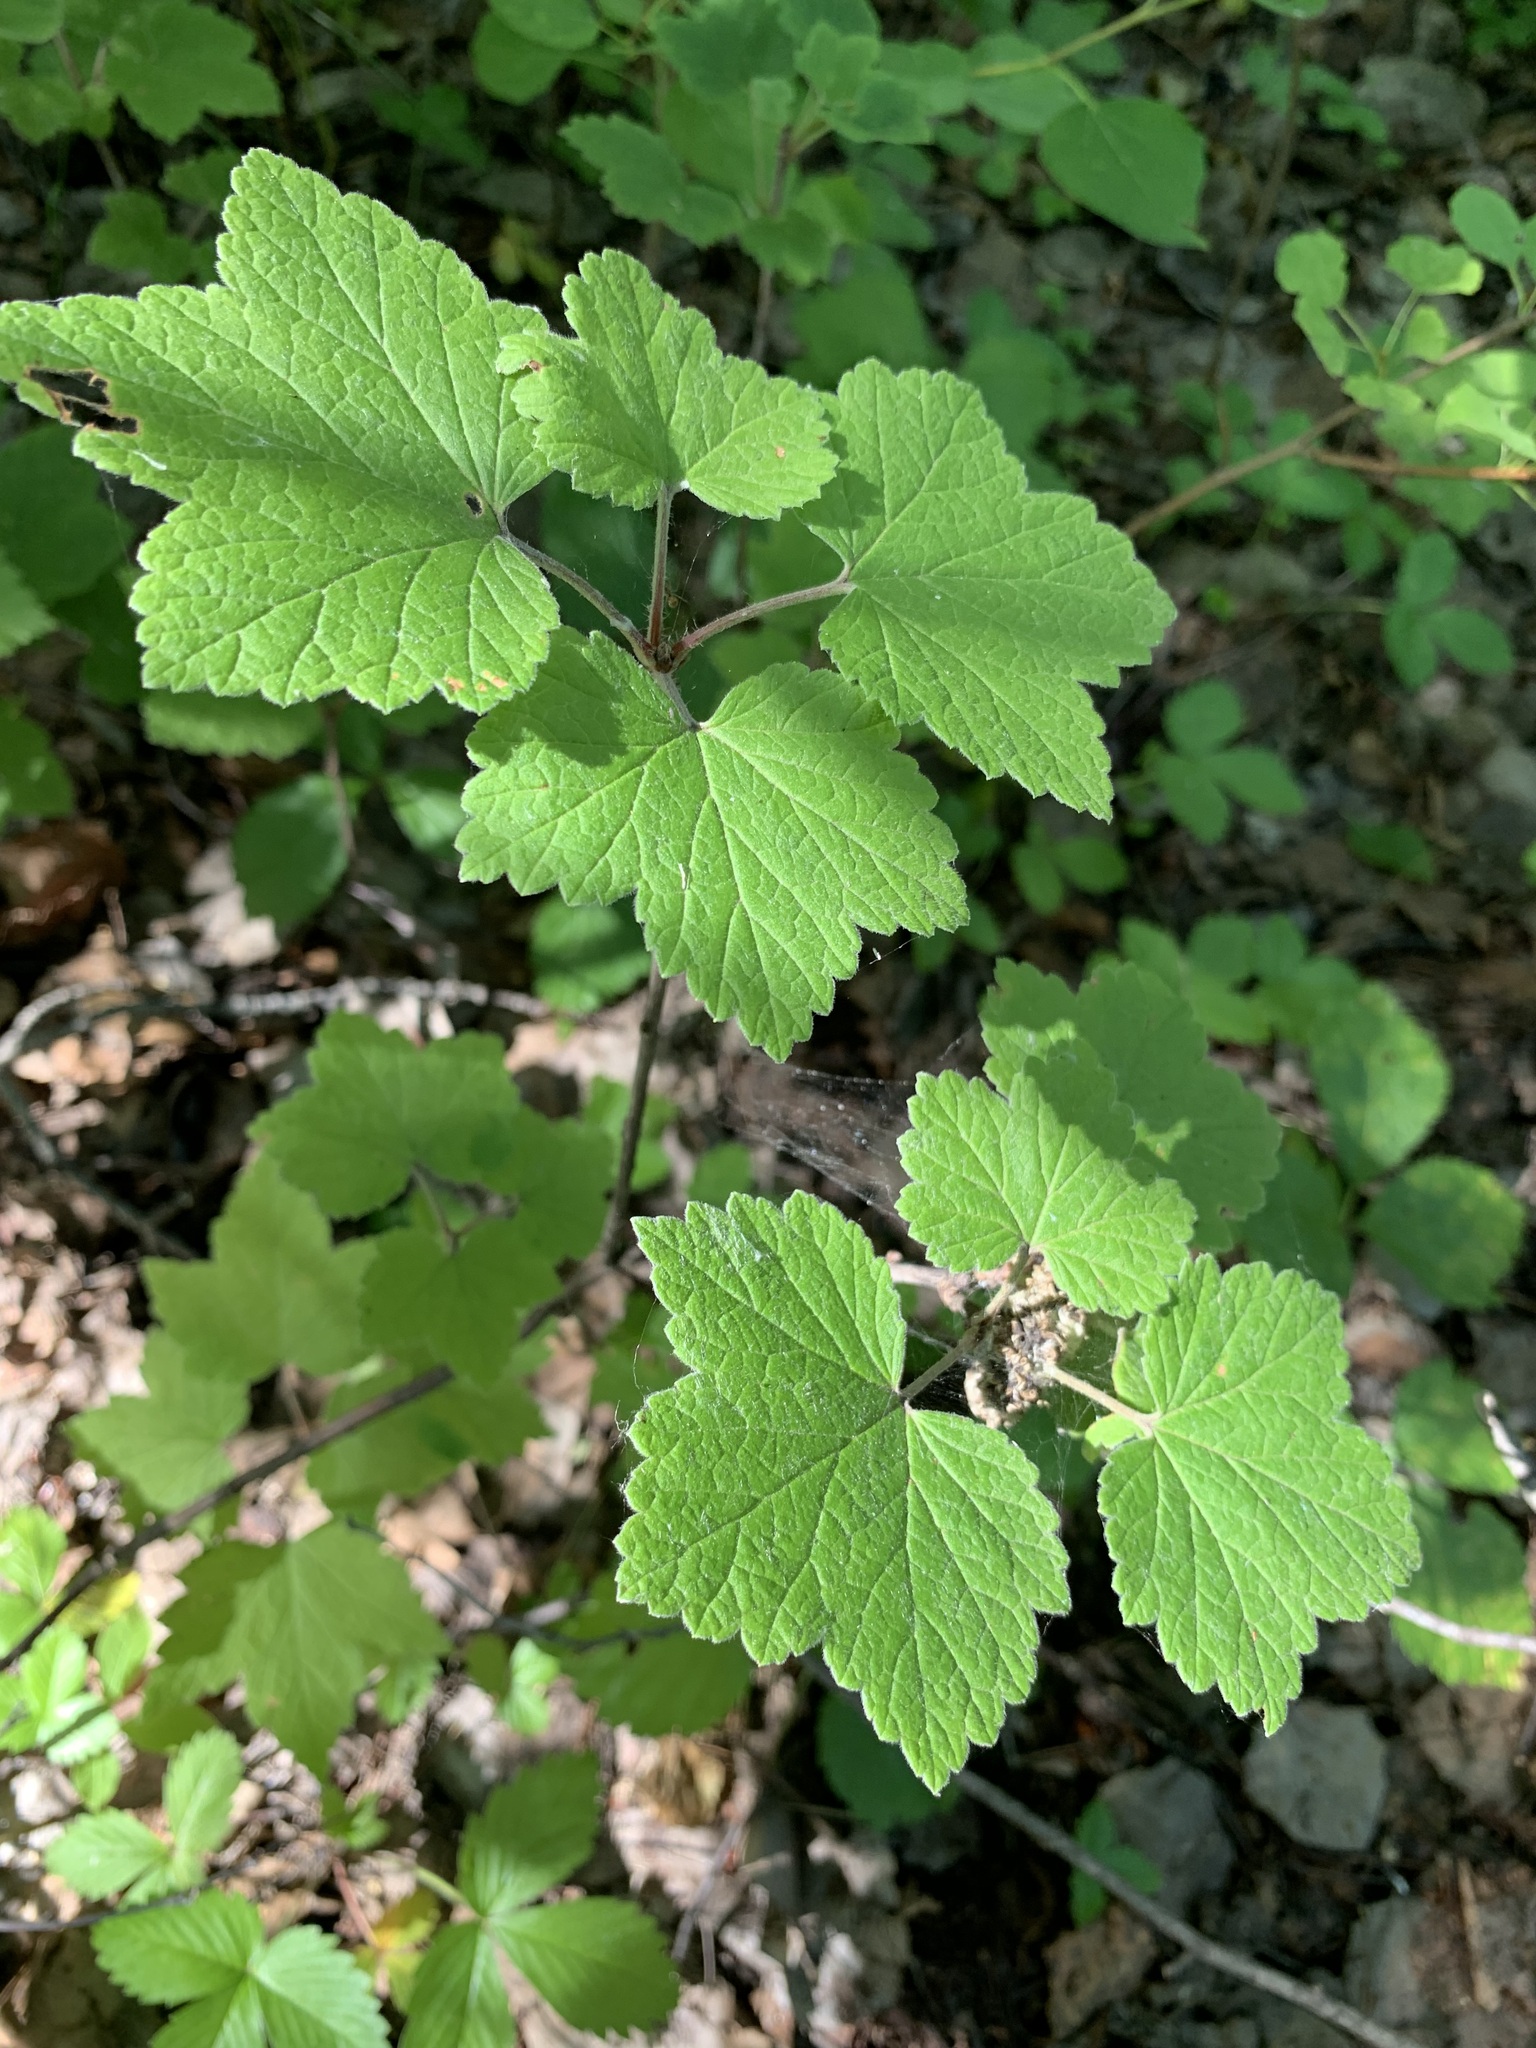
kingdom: Plantae
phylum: Tracheophyta
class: Magnoliopsida
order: Saxifragales
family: Grossulariaceae
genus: Ribes
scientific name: Ribes spicatum
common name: Downy currant
